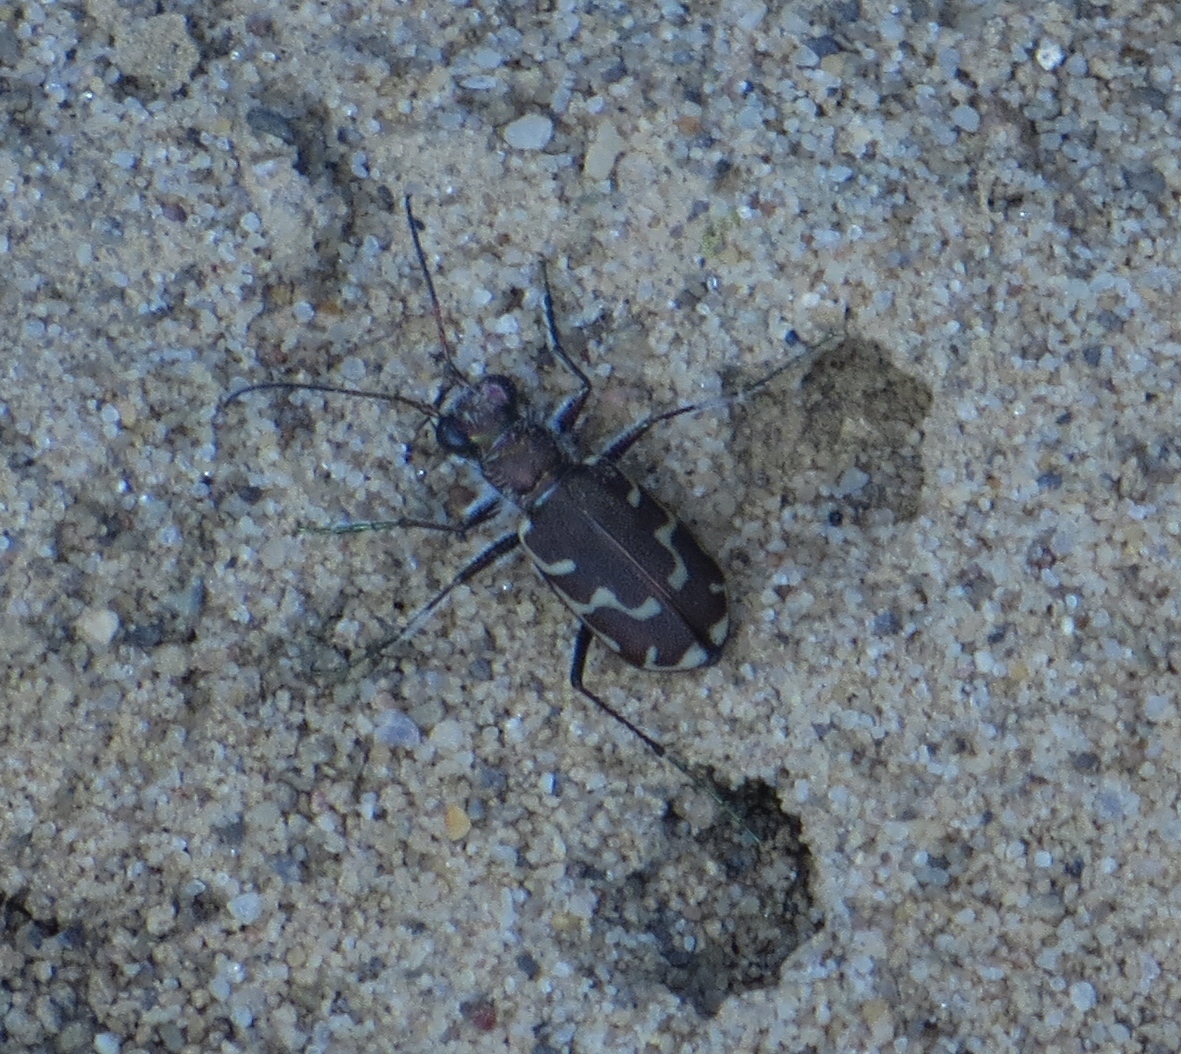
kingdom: Animalia
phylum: Arthropoda
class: Insecta
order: Coleoptera
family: Carabidae
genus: Cicindela
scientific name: Cicindela repanda
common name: Bronzed tiger beetle
